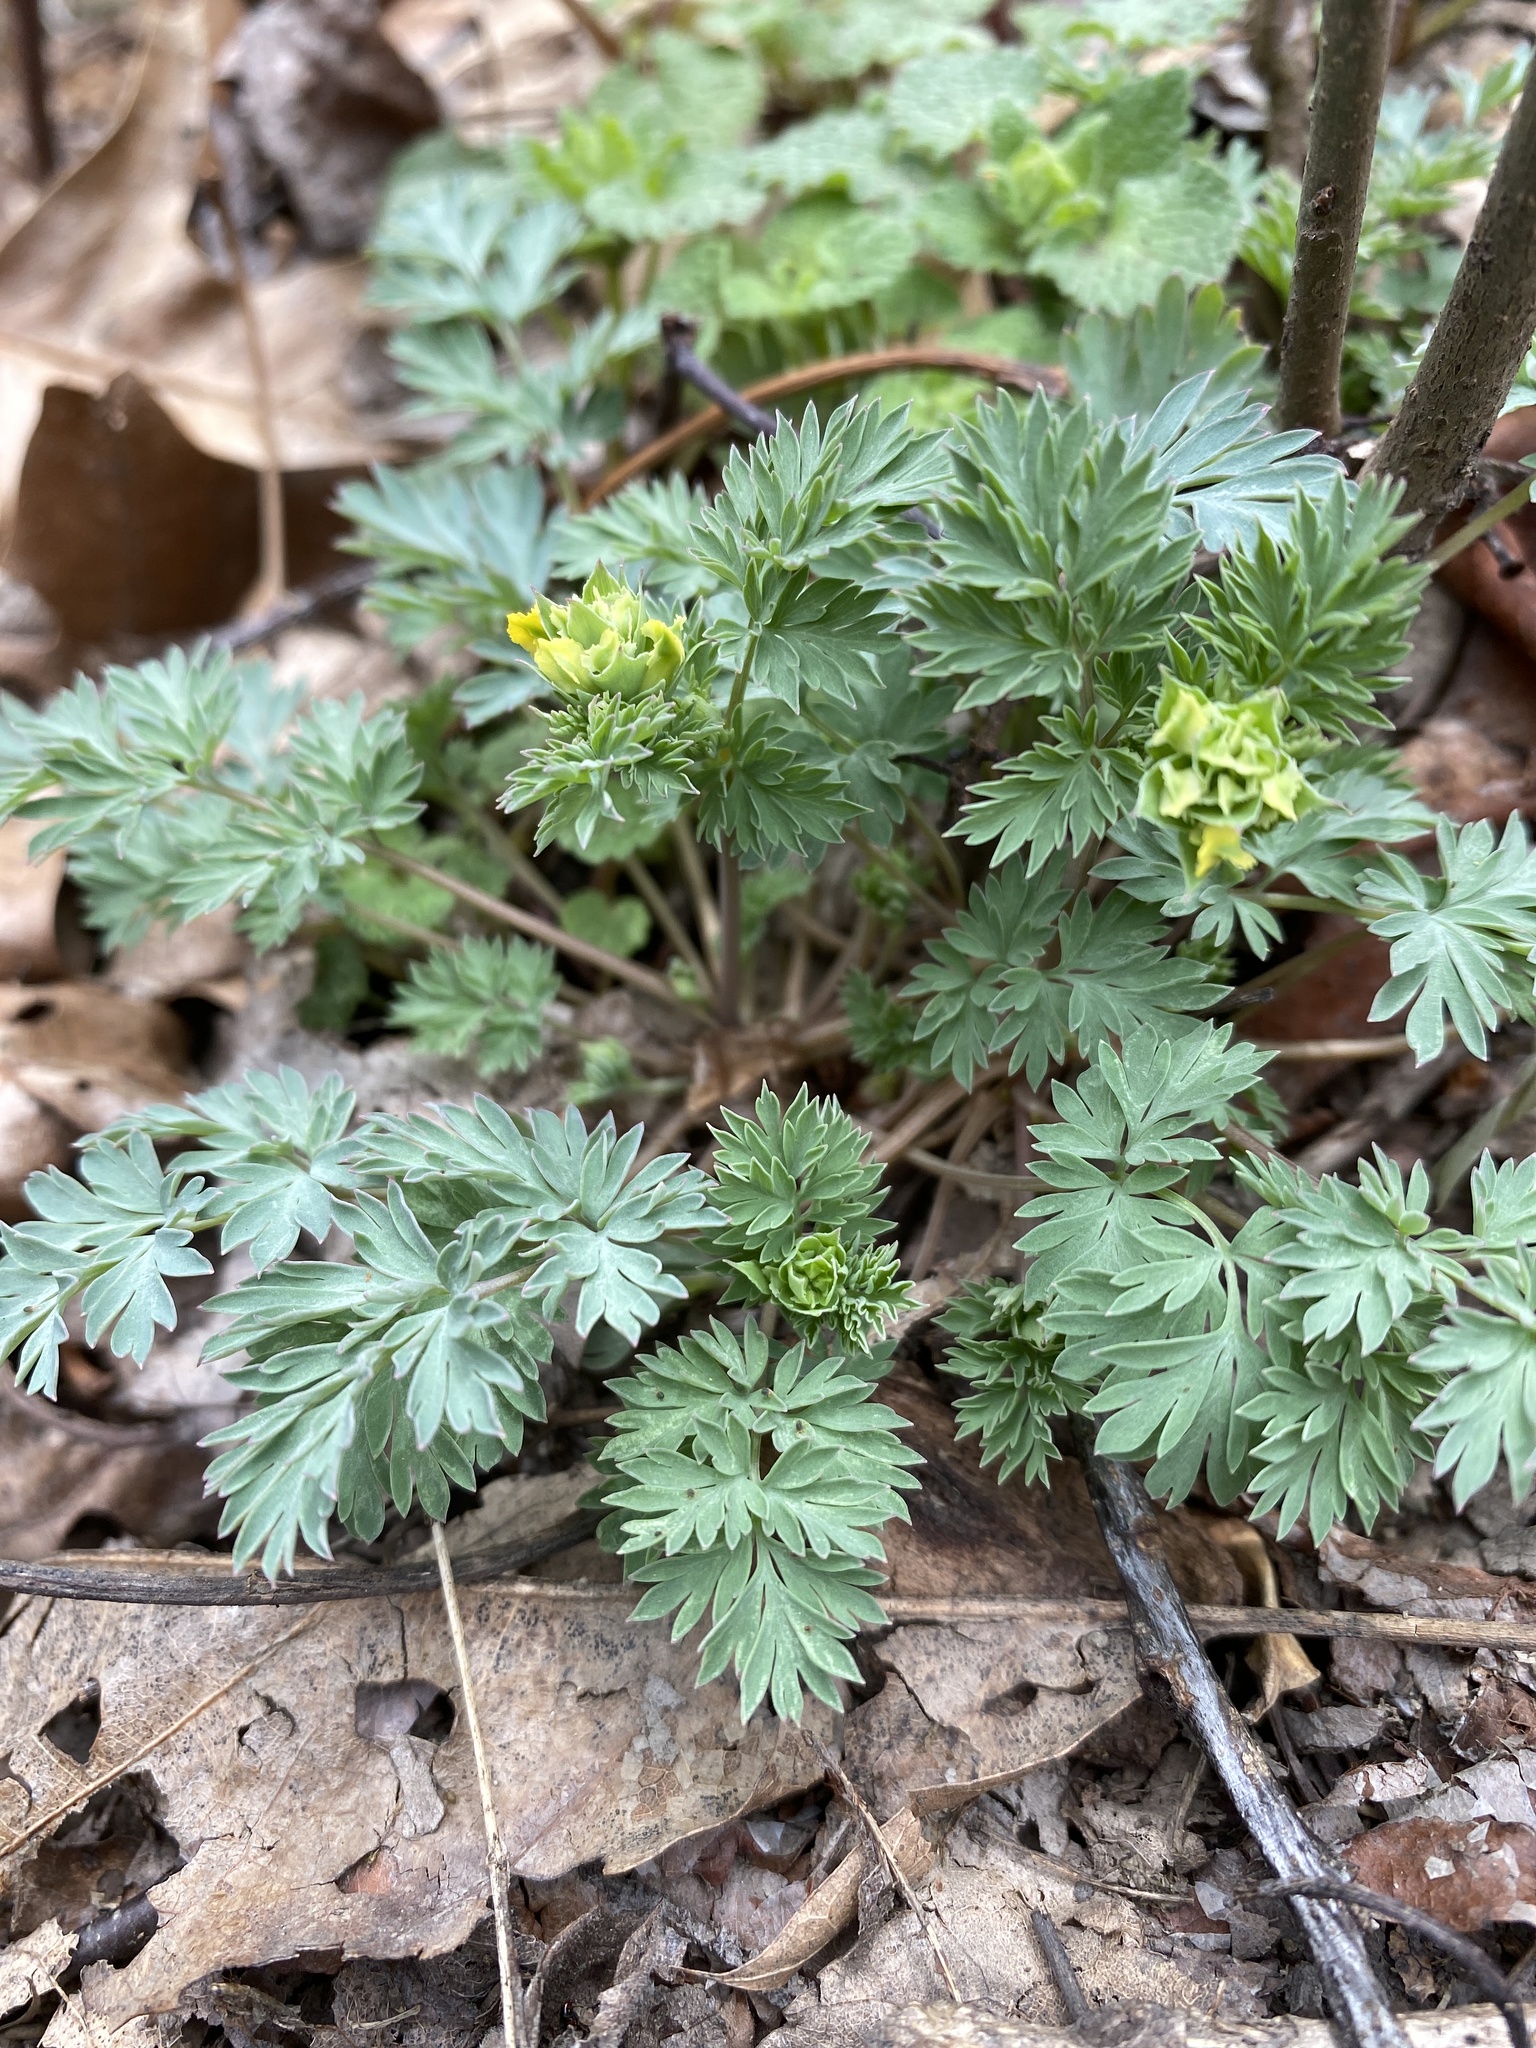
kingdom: Plantae
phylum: Tracheophyta
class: Magnoliopsida
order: Ranunculales
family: Papaveraceae
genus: Corydalis
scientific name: Corydalis flavula
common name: Yellow corydalis
